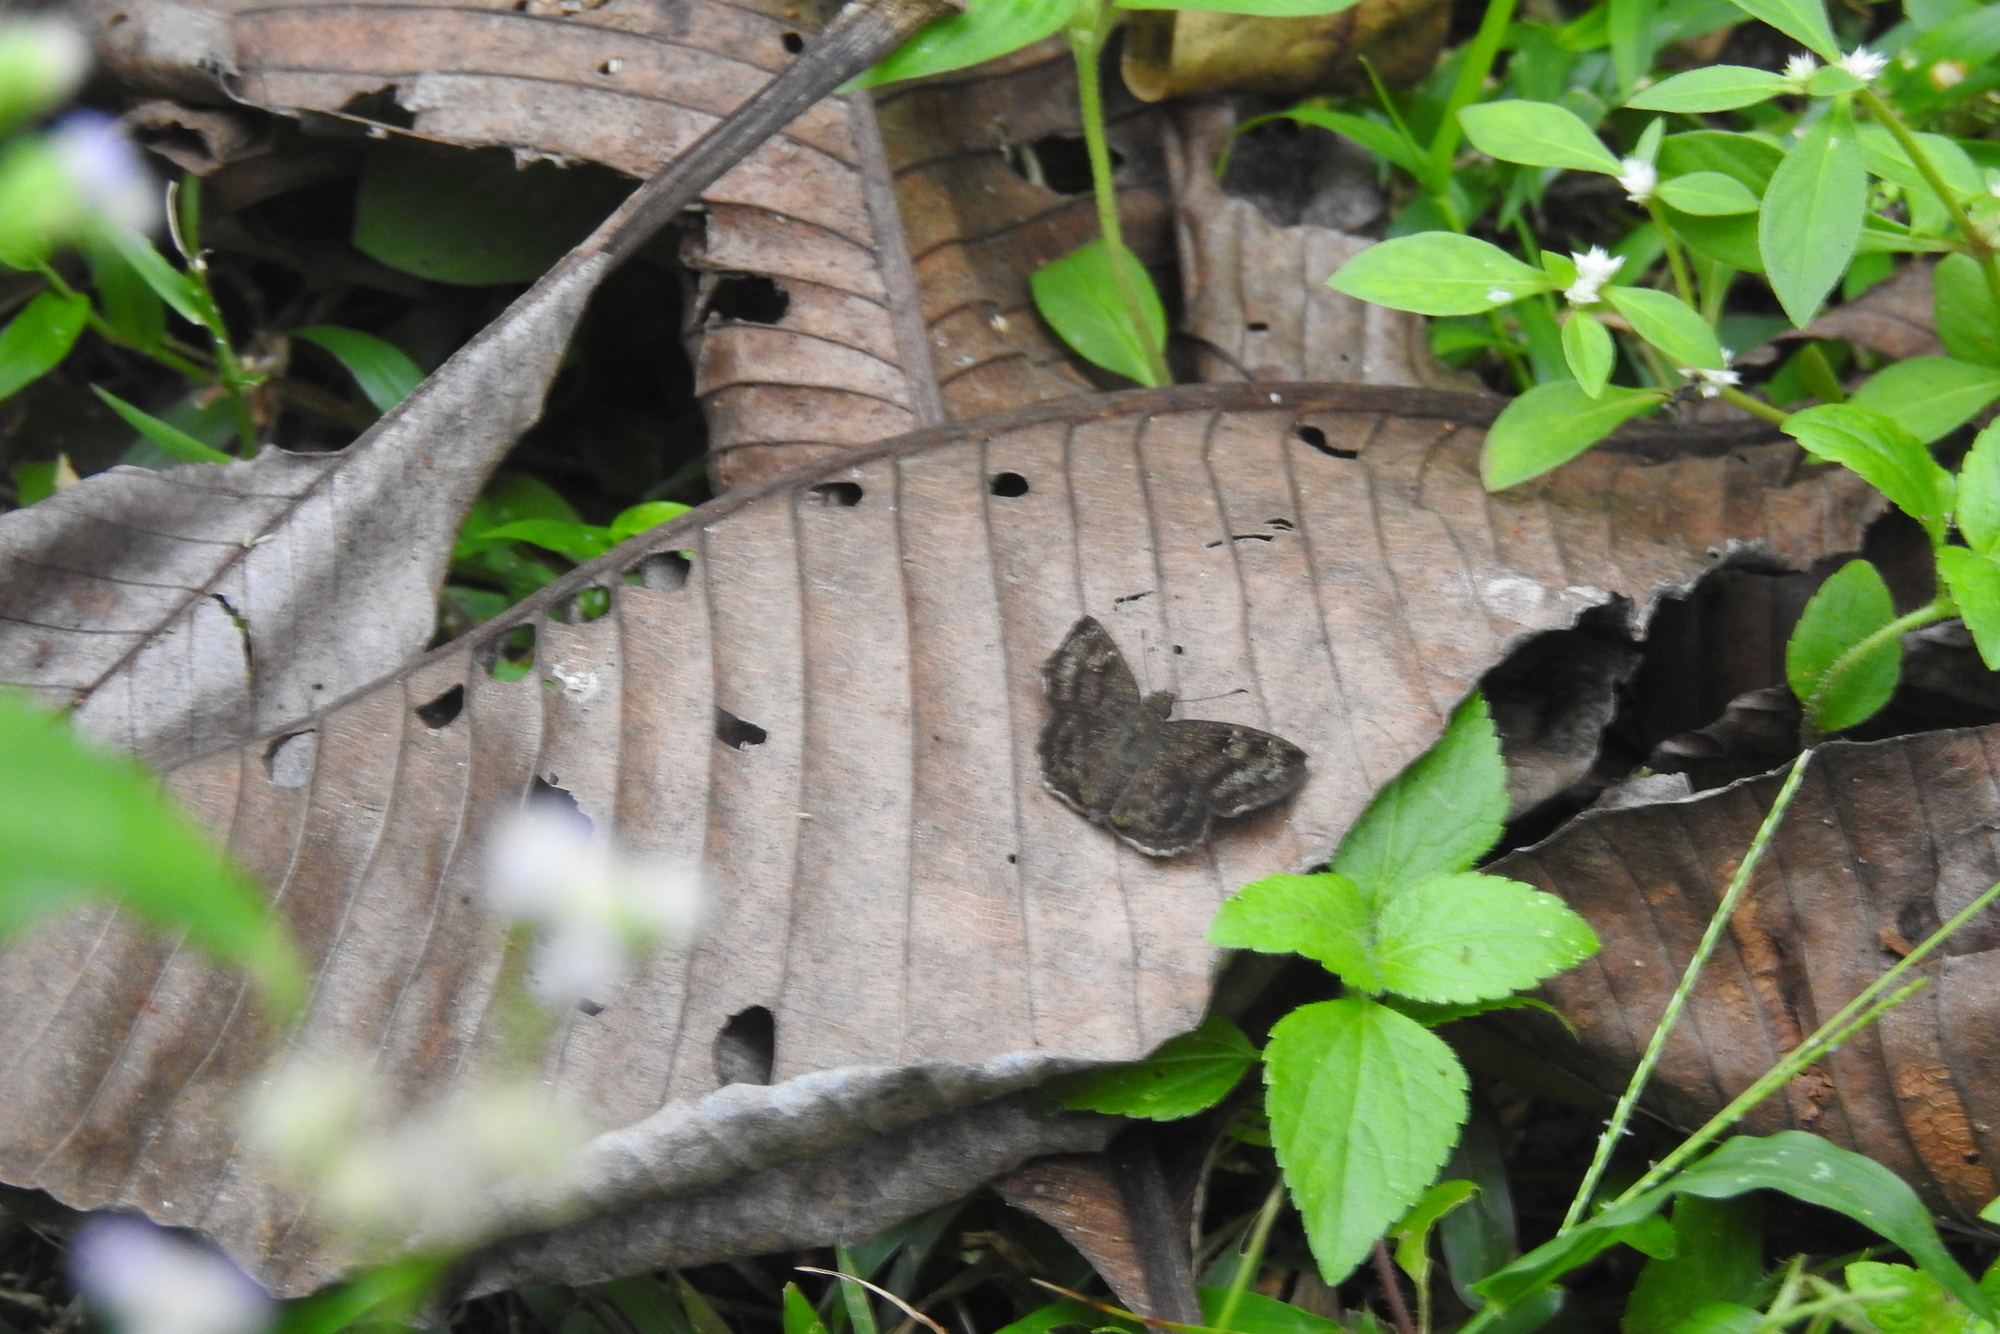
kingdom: Animalia
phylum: Arthropoda
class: Insecta
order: Lepidoptera
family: Hesperiidae
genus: Sarangesa
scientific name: Sarangesa dasahara
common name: Common small flat
